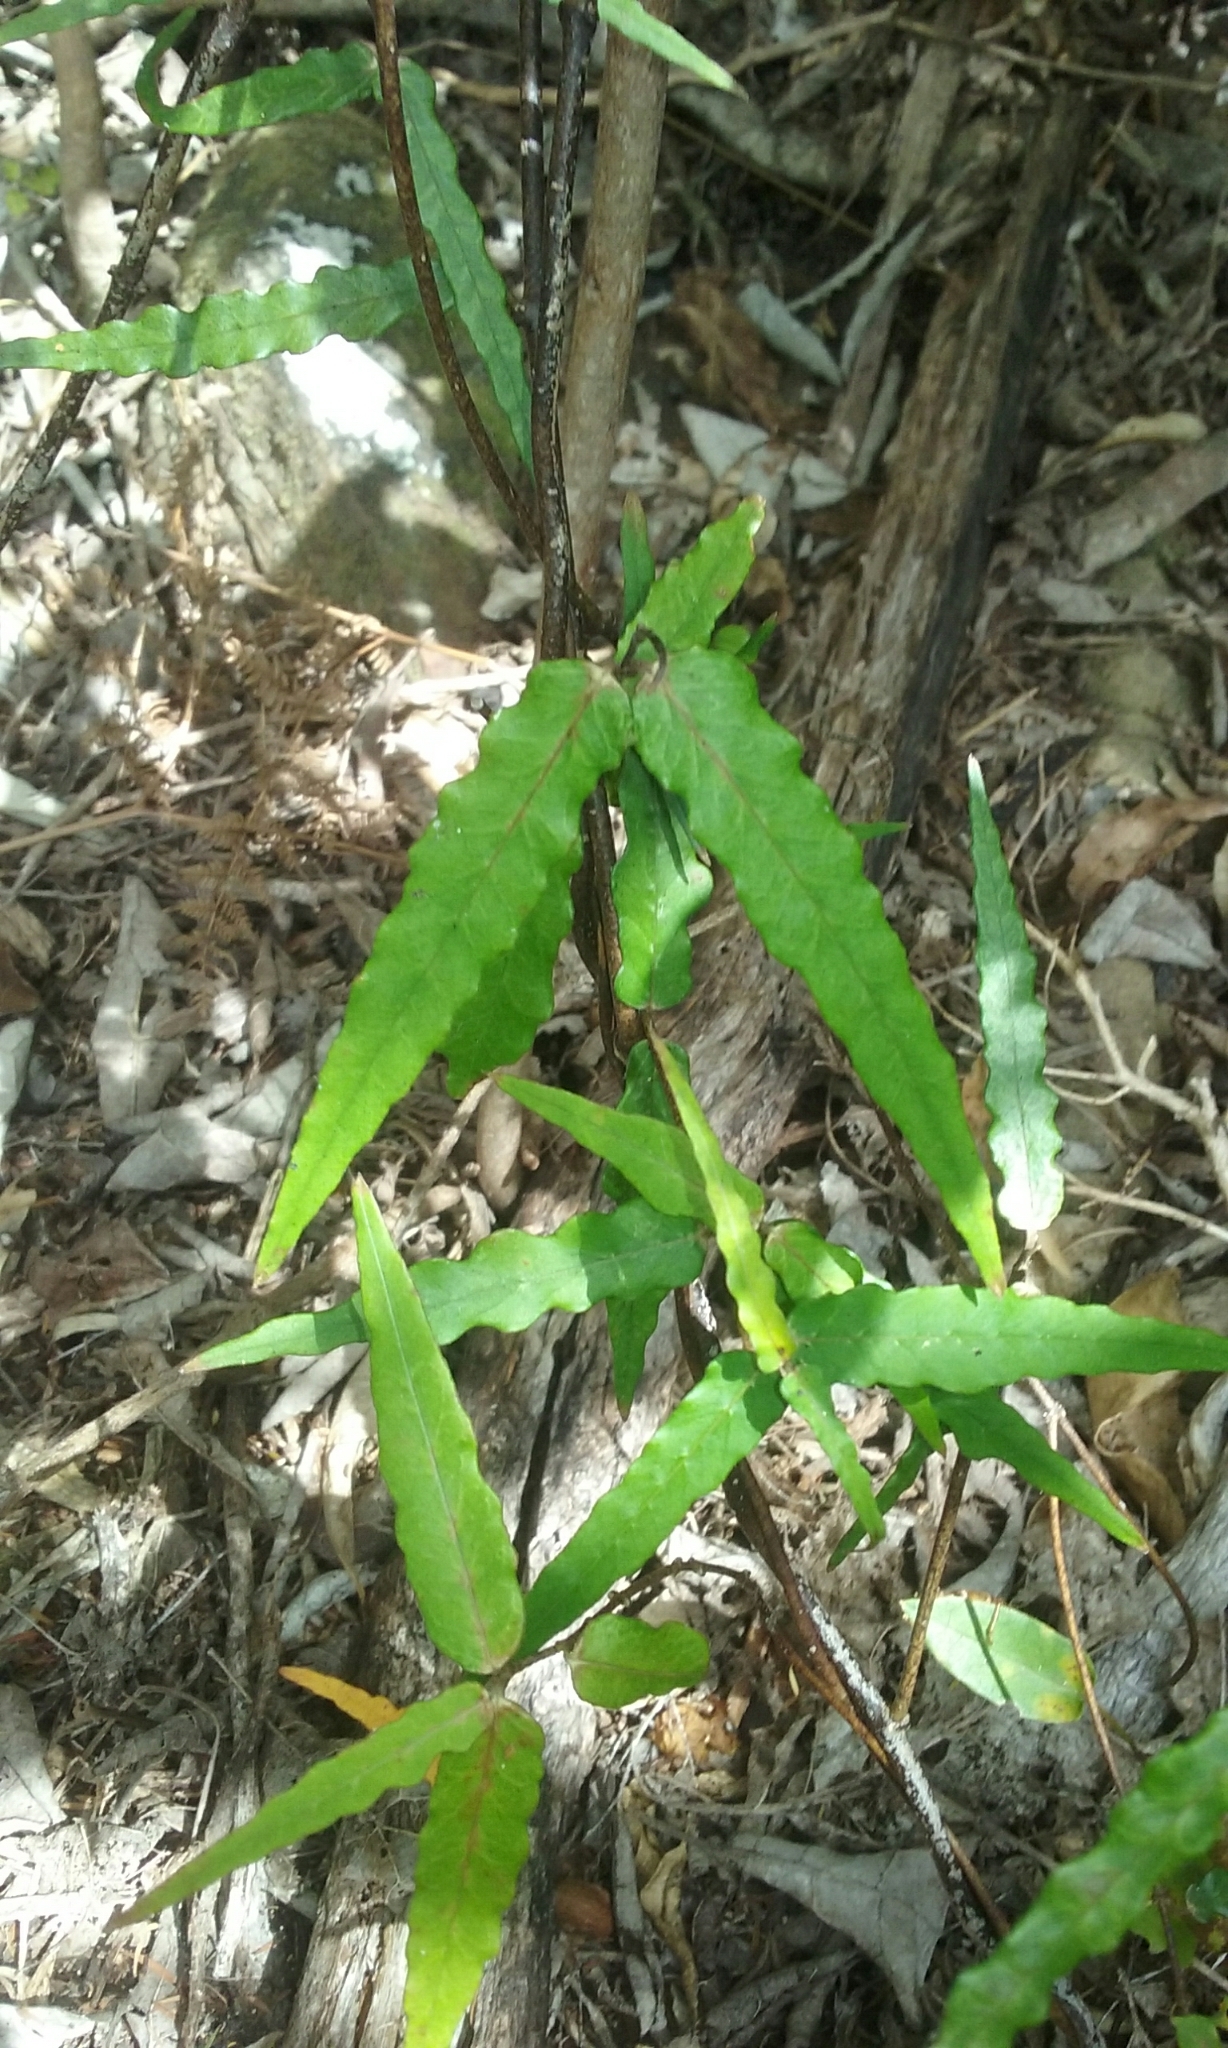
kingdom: Plantae
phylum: Tracheophyta
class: Magnoliopsida
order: Gentianales
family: Apocynaceae
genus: Parsonsia
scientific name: Parsonsia heterophylla
